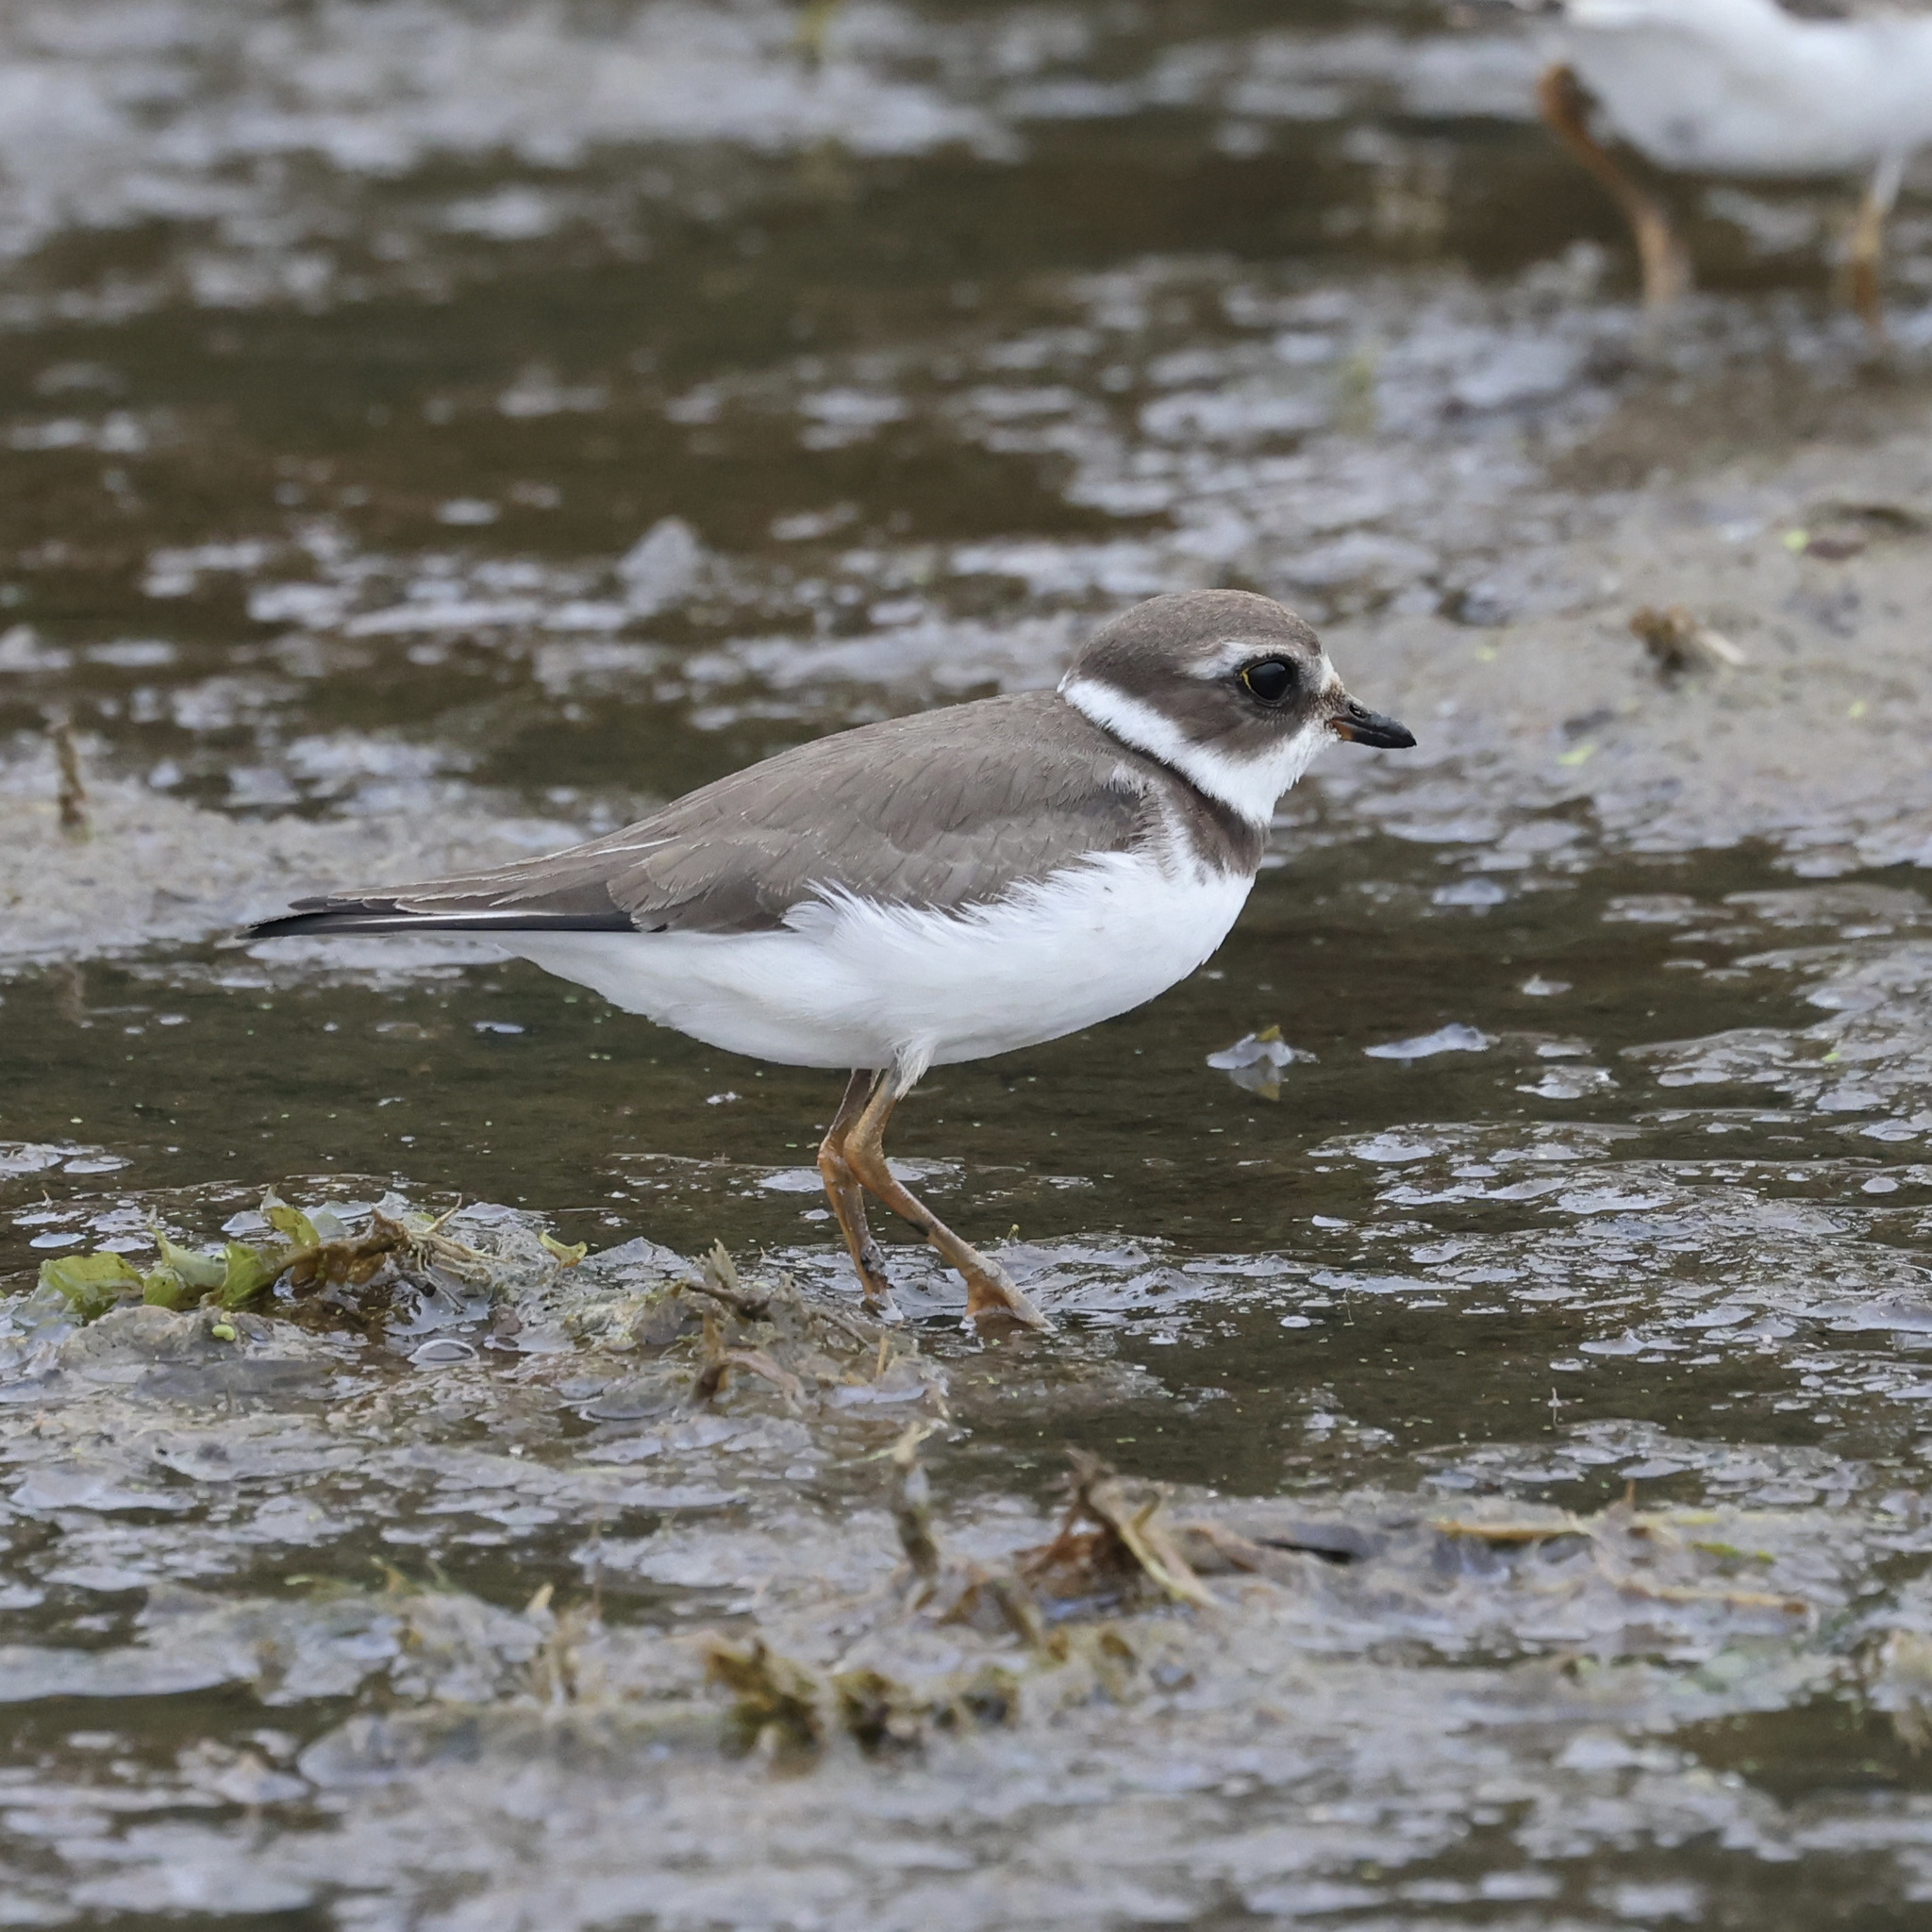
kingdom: Animalia
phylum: Chordata
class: Aves
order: Charadriiformes
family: Charadriidae
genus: Charadrius
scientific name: Charadrius semipalmatus
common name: Semipalmated plover
